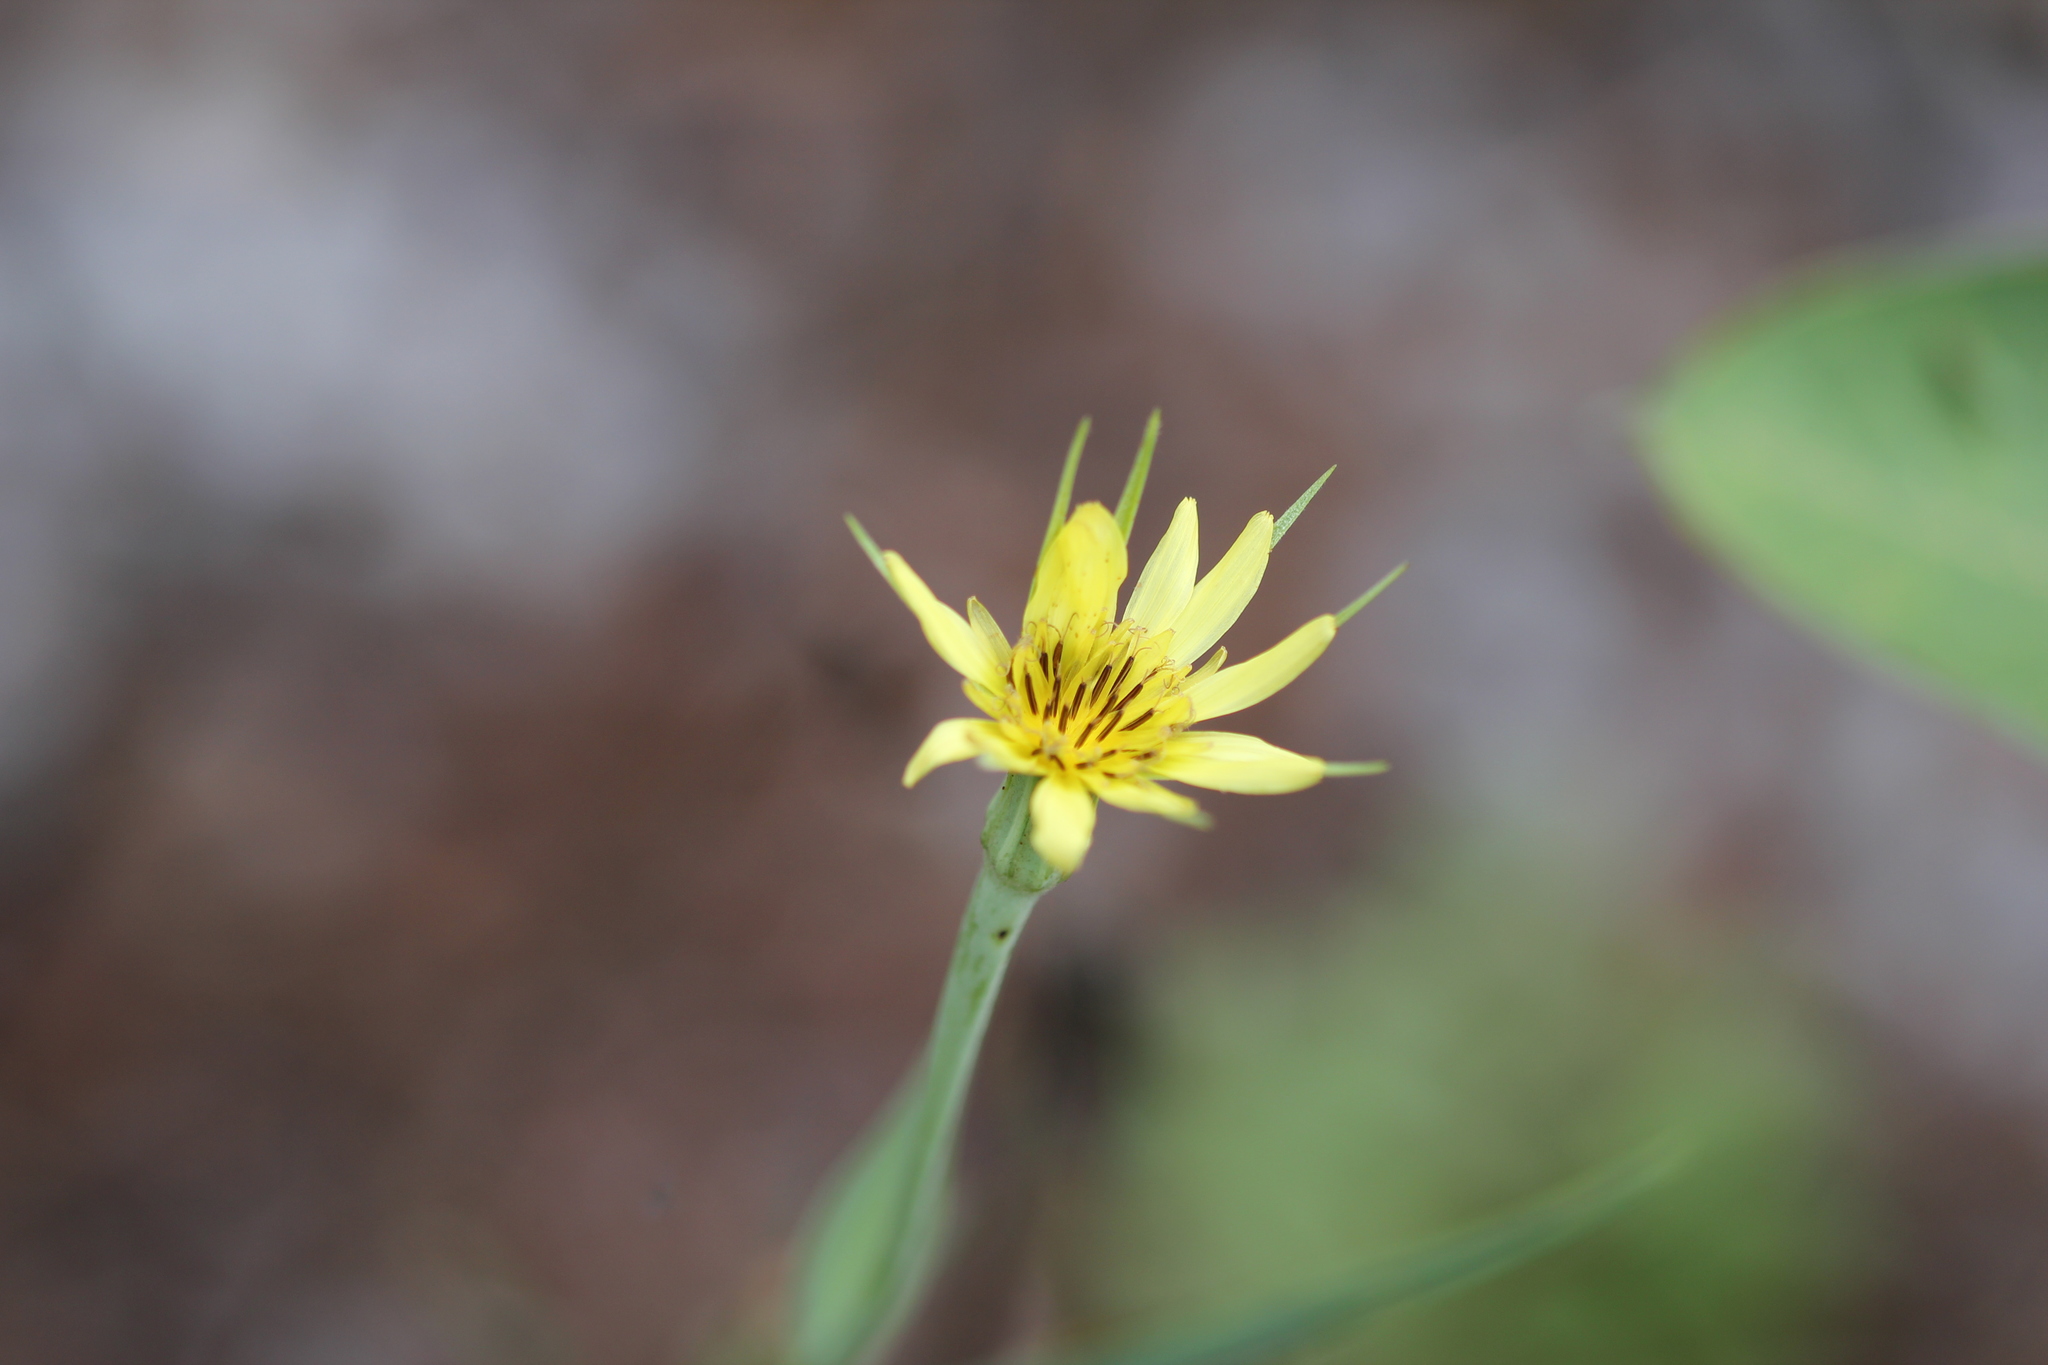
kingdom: Plantae
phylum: Tracheophyta
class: Magnoliopsida
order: Asterales
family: Asteraceae
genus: Tragopogon
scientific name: Tragopogon dubius
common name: Yellow salsify
